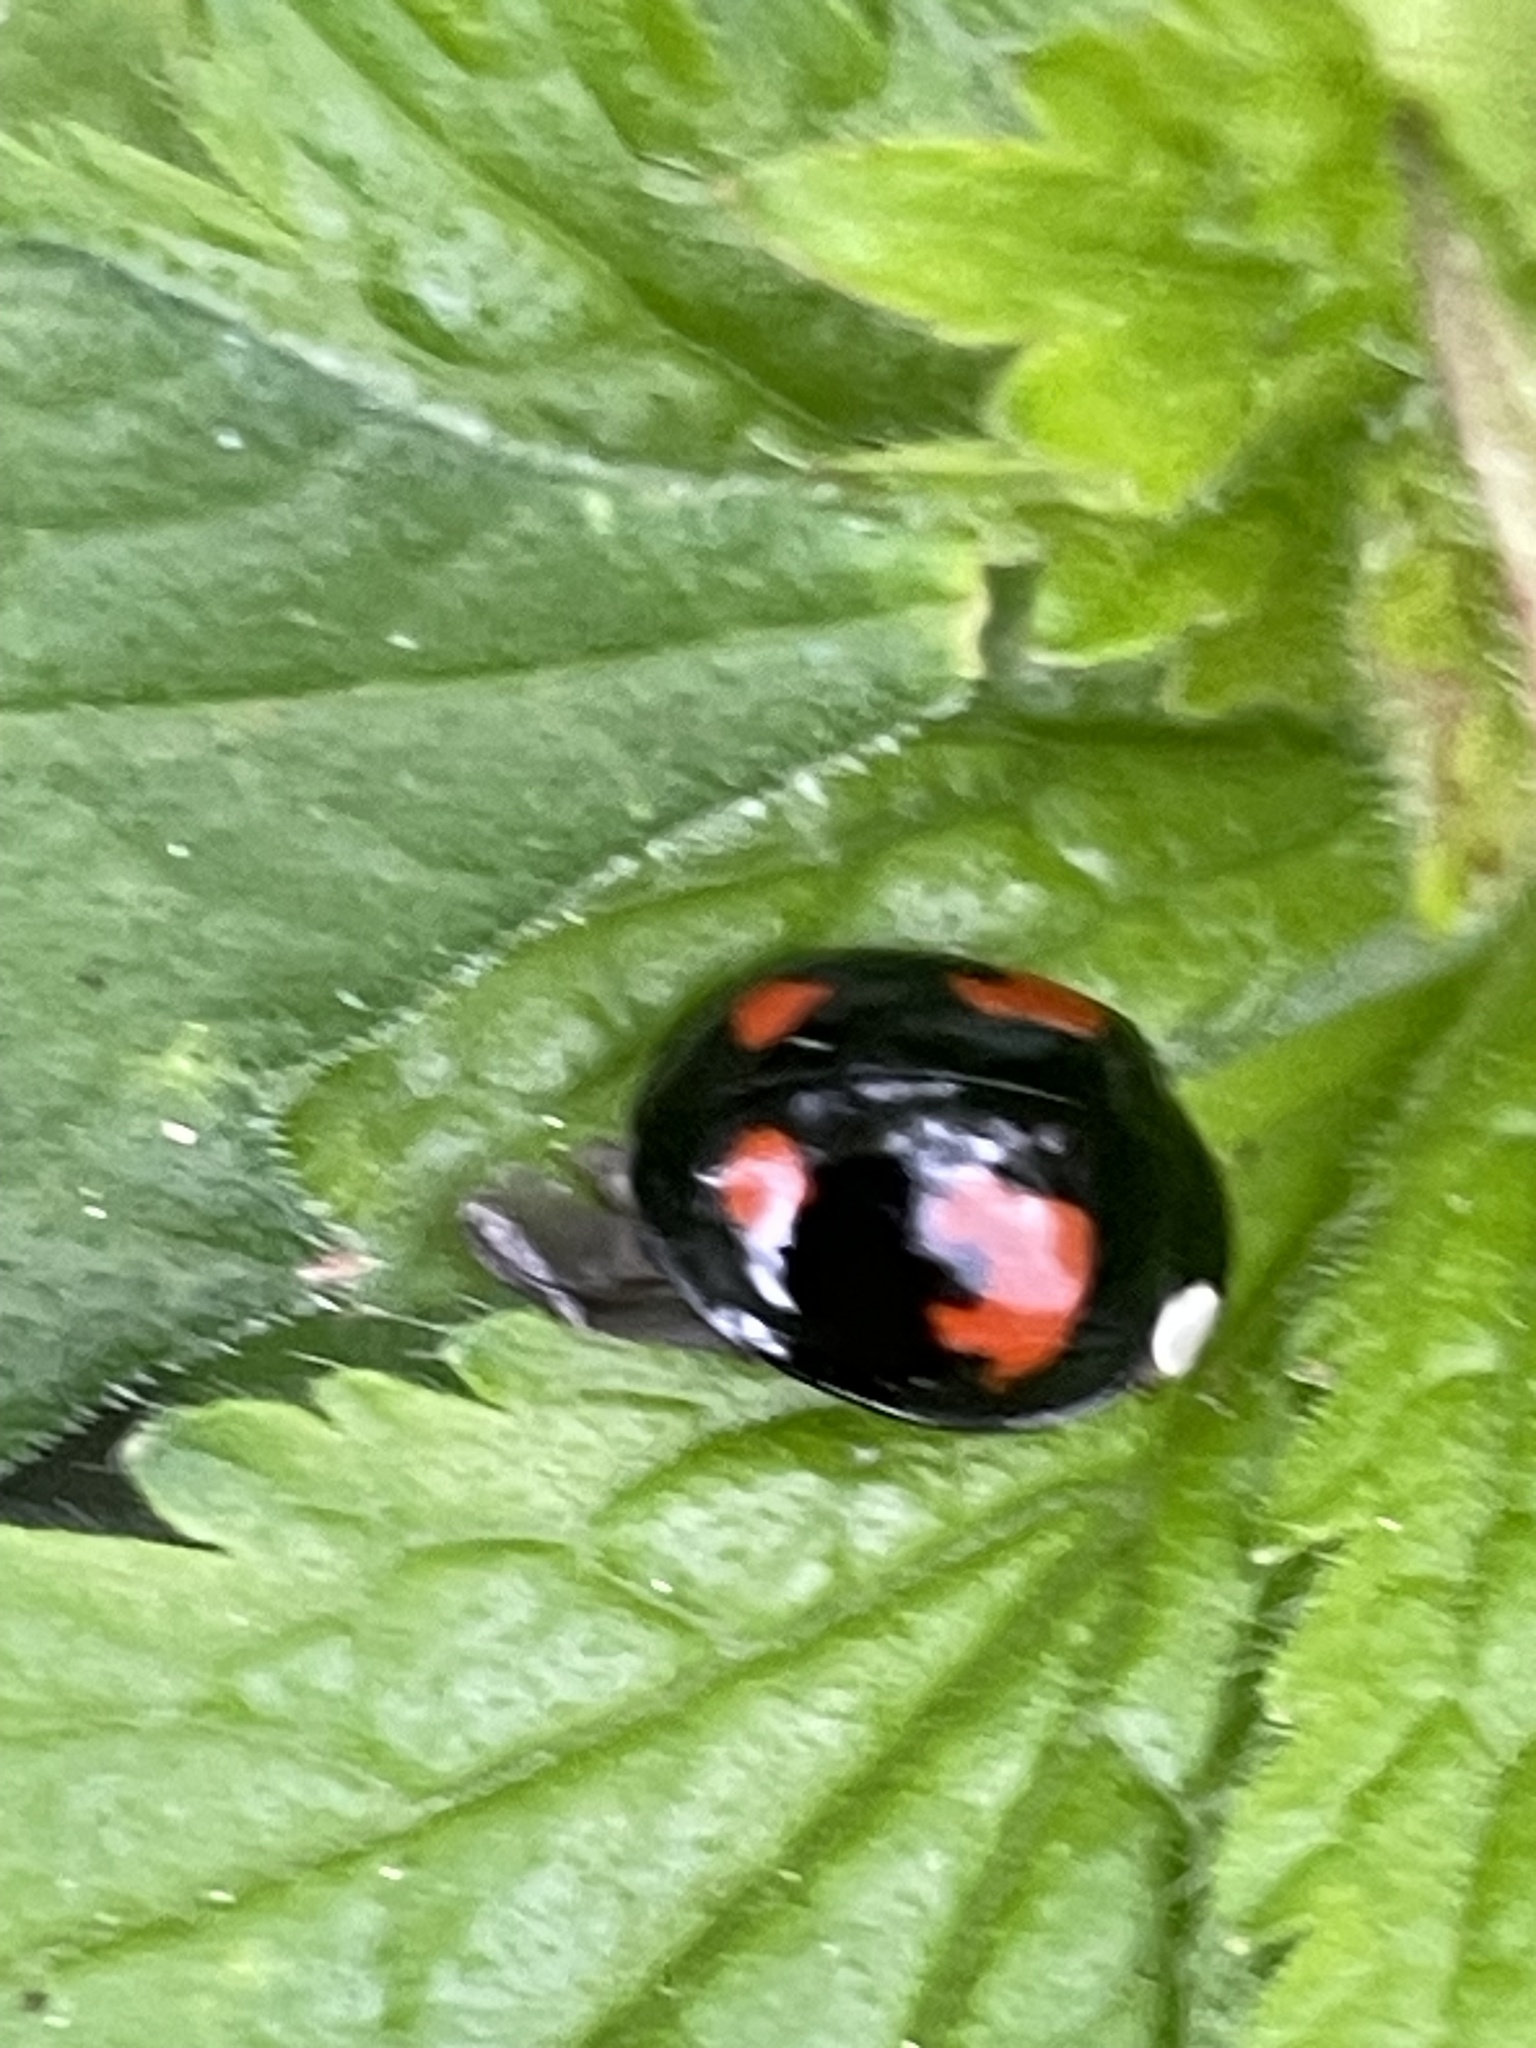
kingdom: Animalia
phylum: Arthropoda
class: Insecta
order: Coleoptera
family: Coccinellidae
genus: Harmonia
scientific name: Harmonia axyridis
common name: Harlequin ladybird
